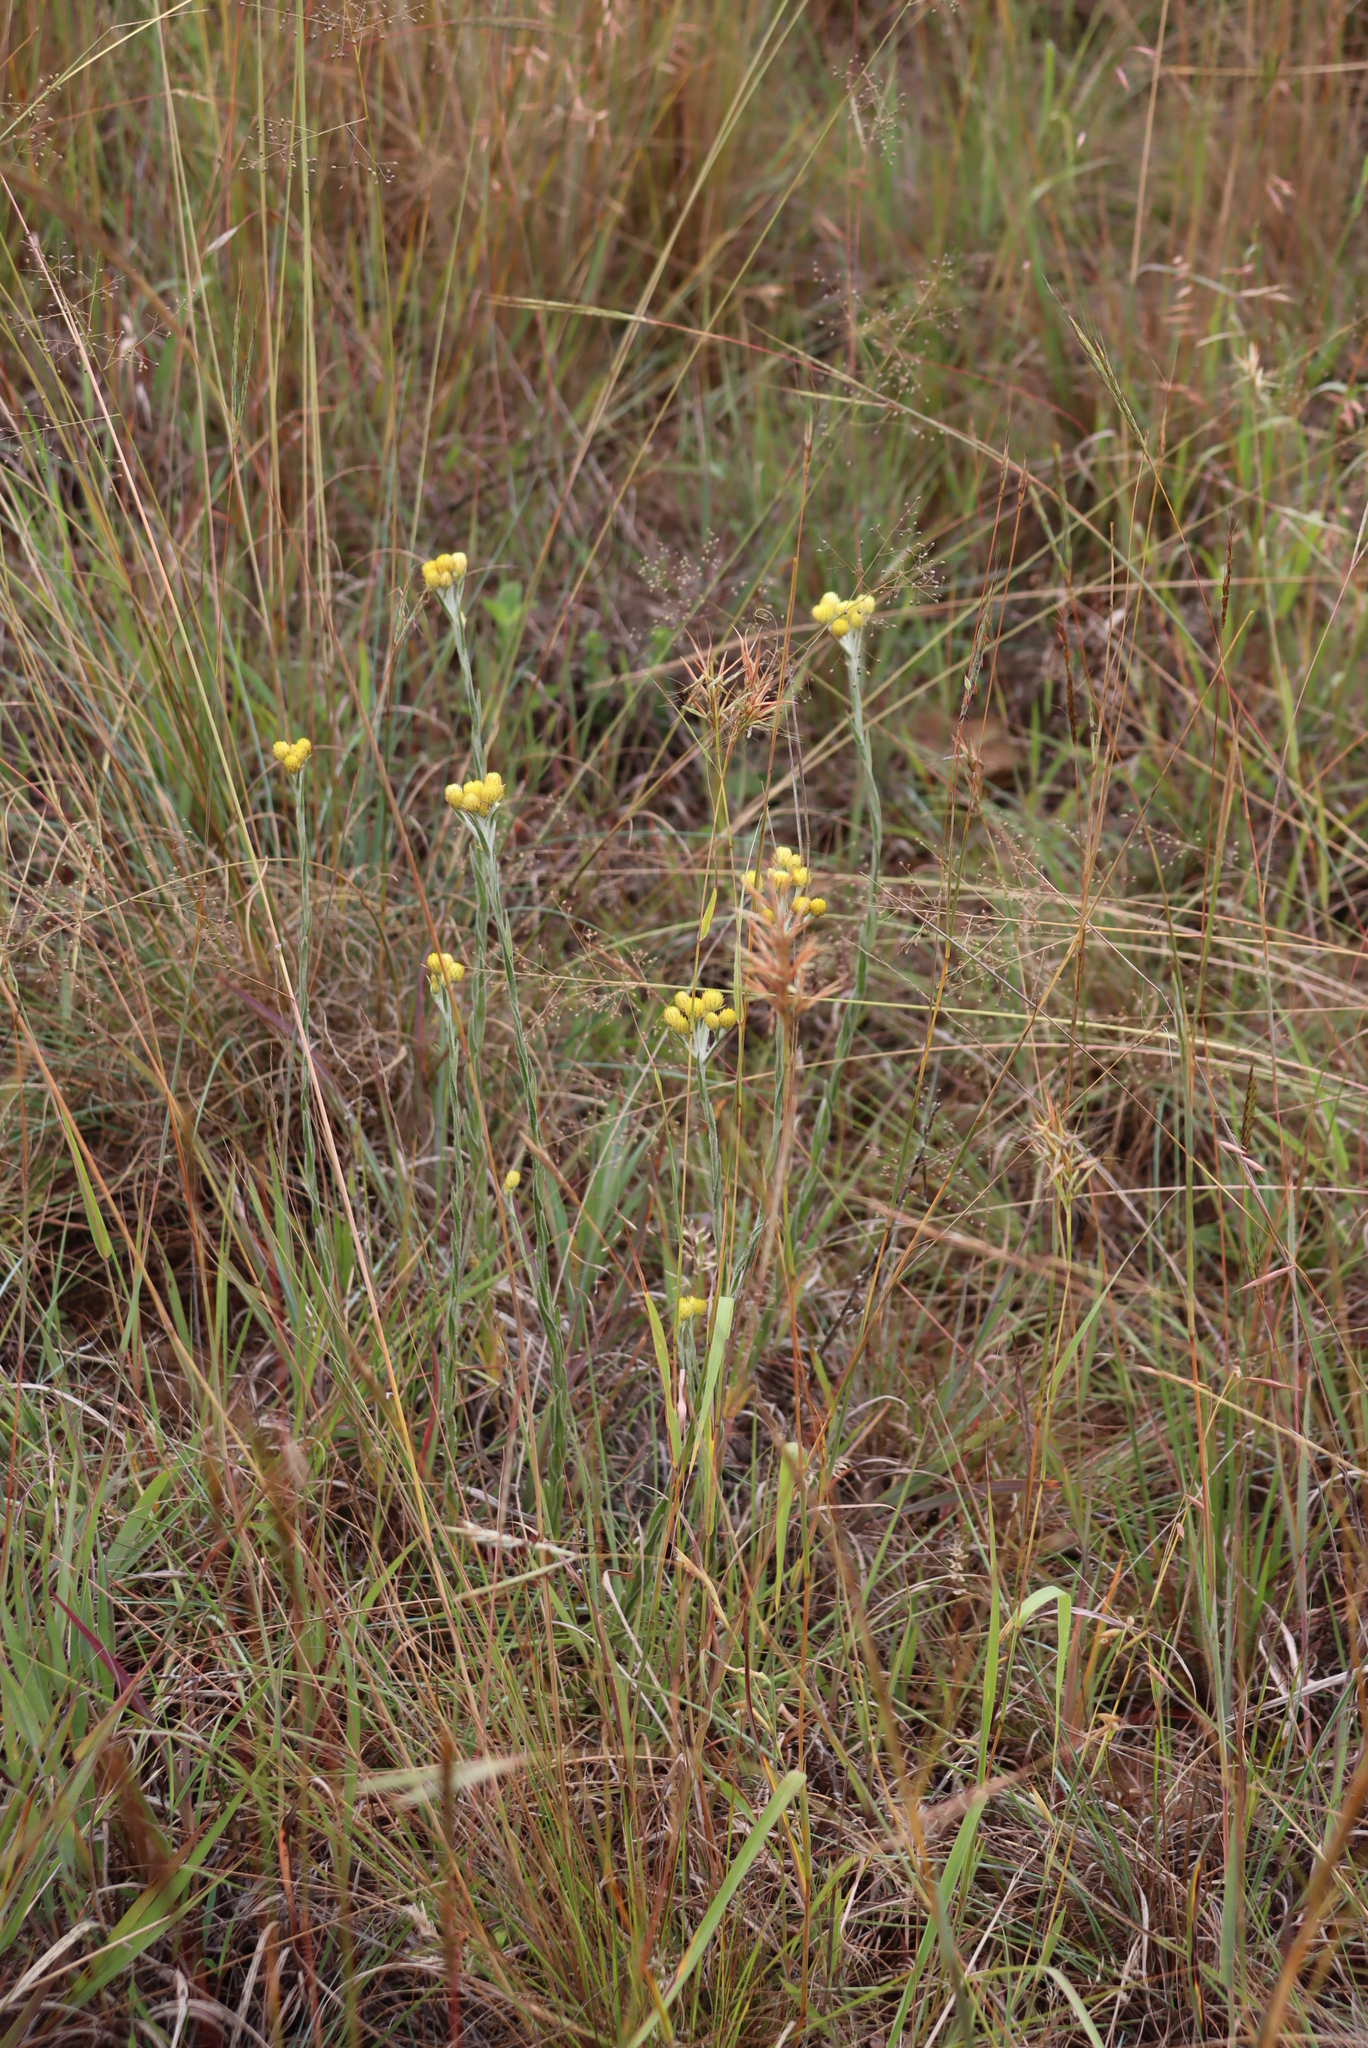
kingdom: Plantae
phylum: Tracheophyta
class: Magnoliopsida
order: Asterales
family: Asteraceae
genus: Helichrysum
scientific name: Helichrysum mixtum
